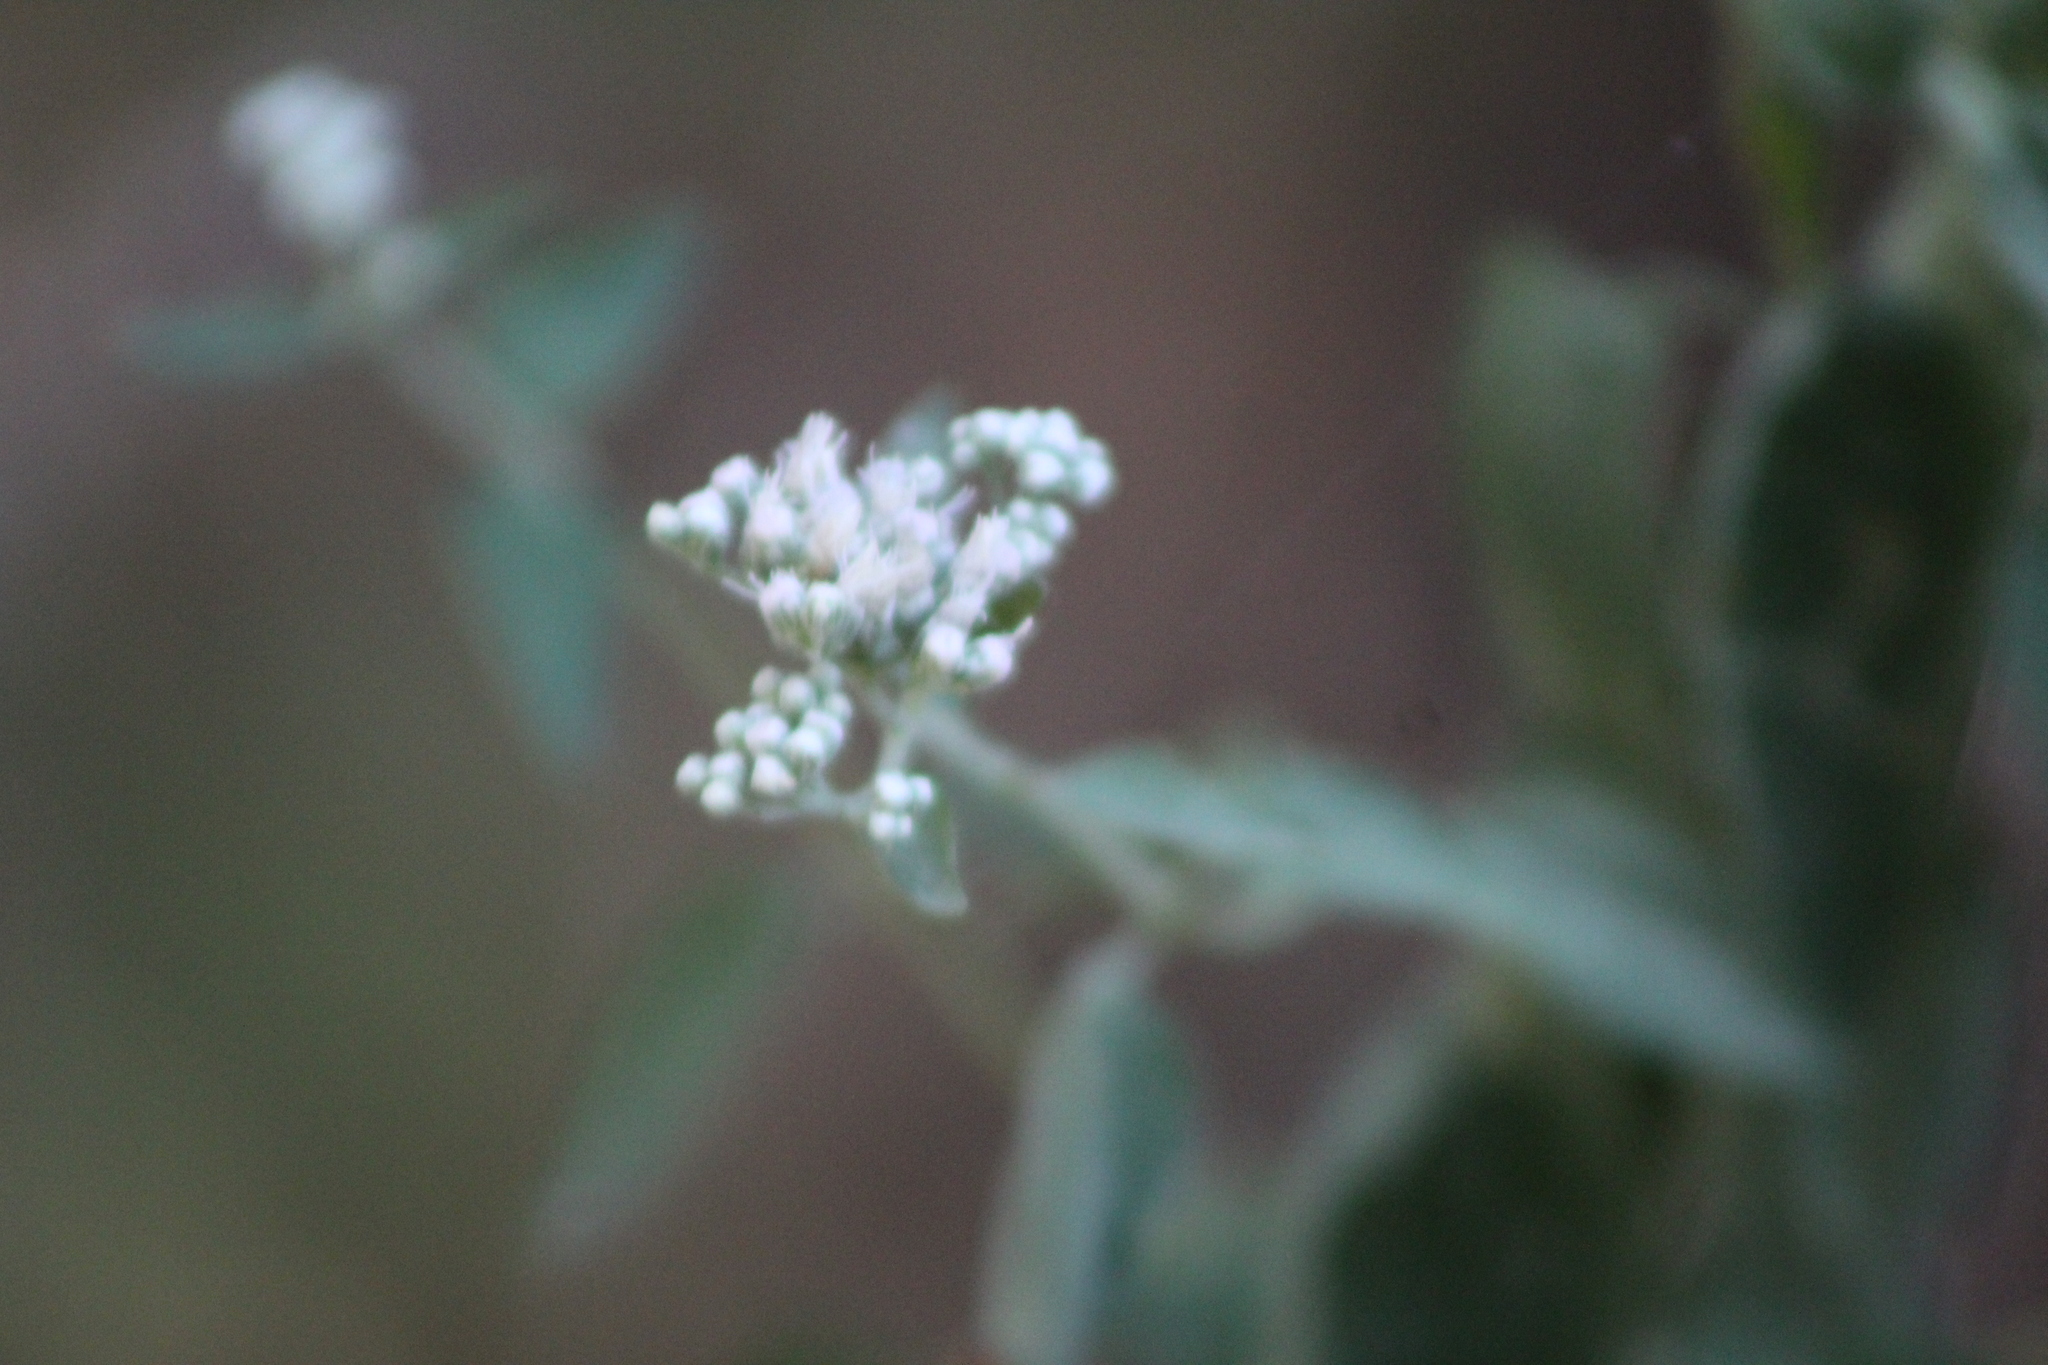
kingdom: Plantae
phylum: Tracheophyta
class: Magnoliopsida
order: Asterales
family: Asteraceae
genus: Eupatorium
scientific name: Eupatorium serotinum
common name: Late boneset
